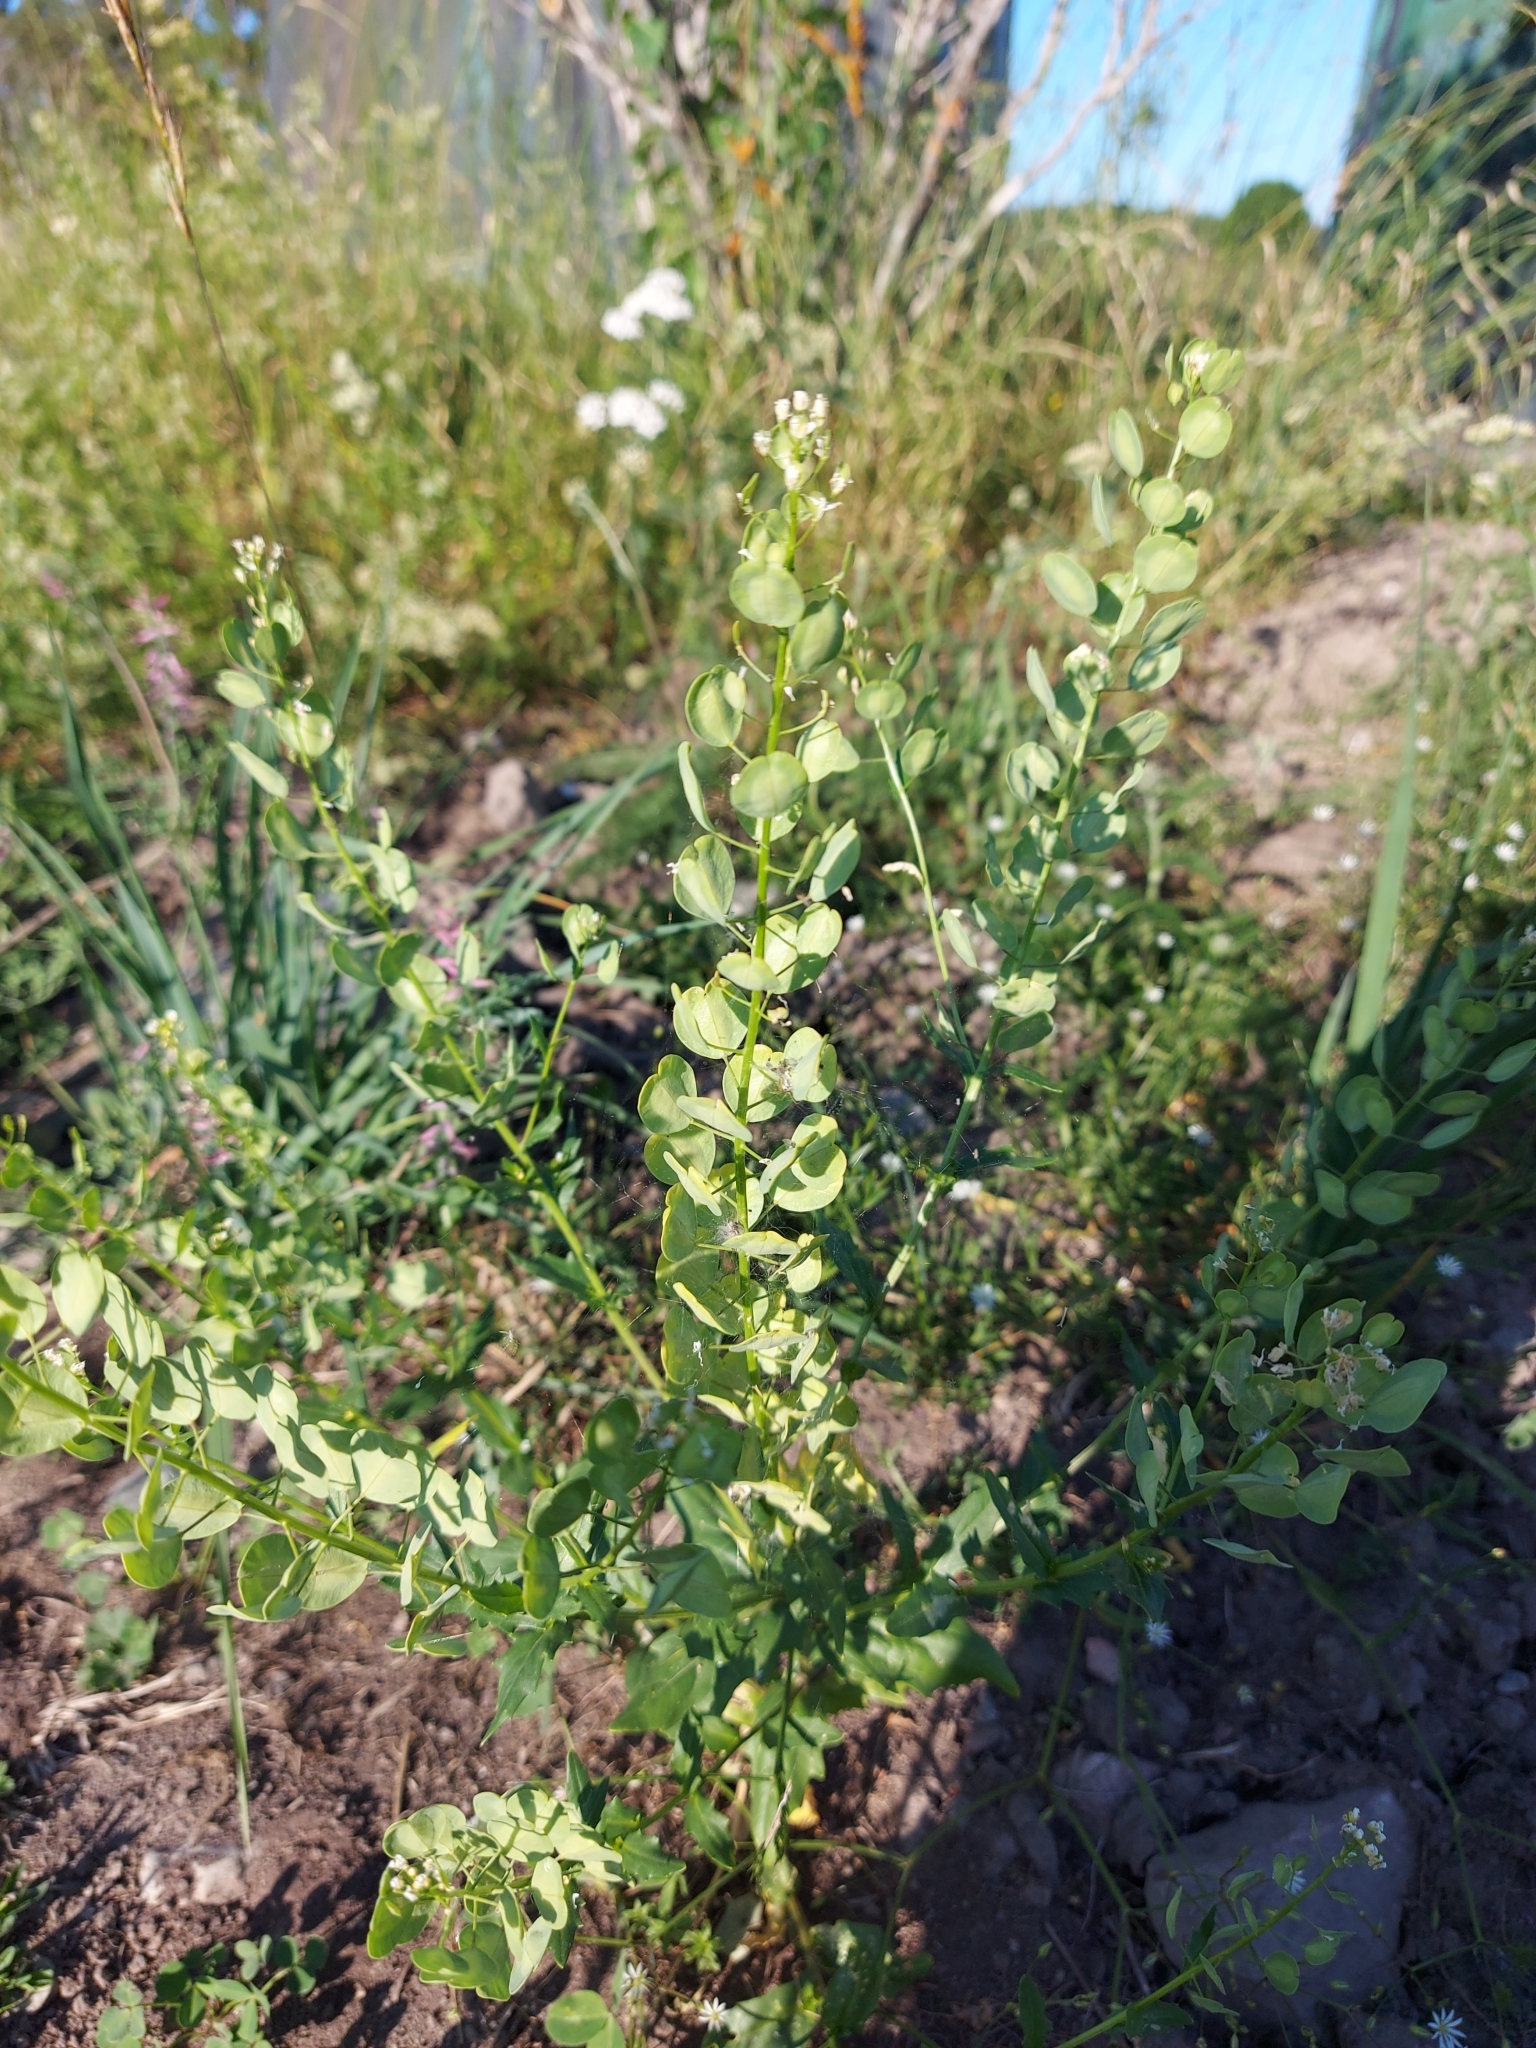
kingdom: Plantae
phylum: Tracheophyta
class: Magnoliopsida
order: Brassicales
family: Brassicaceae
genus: Thlaspi
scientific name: Thlaspi arvense
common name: Field pennycress
